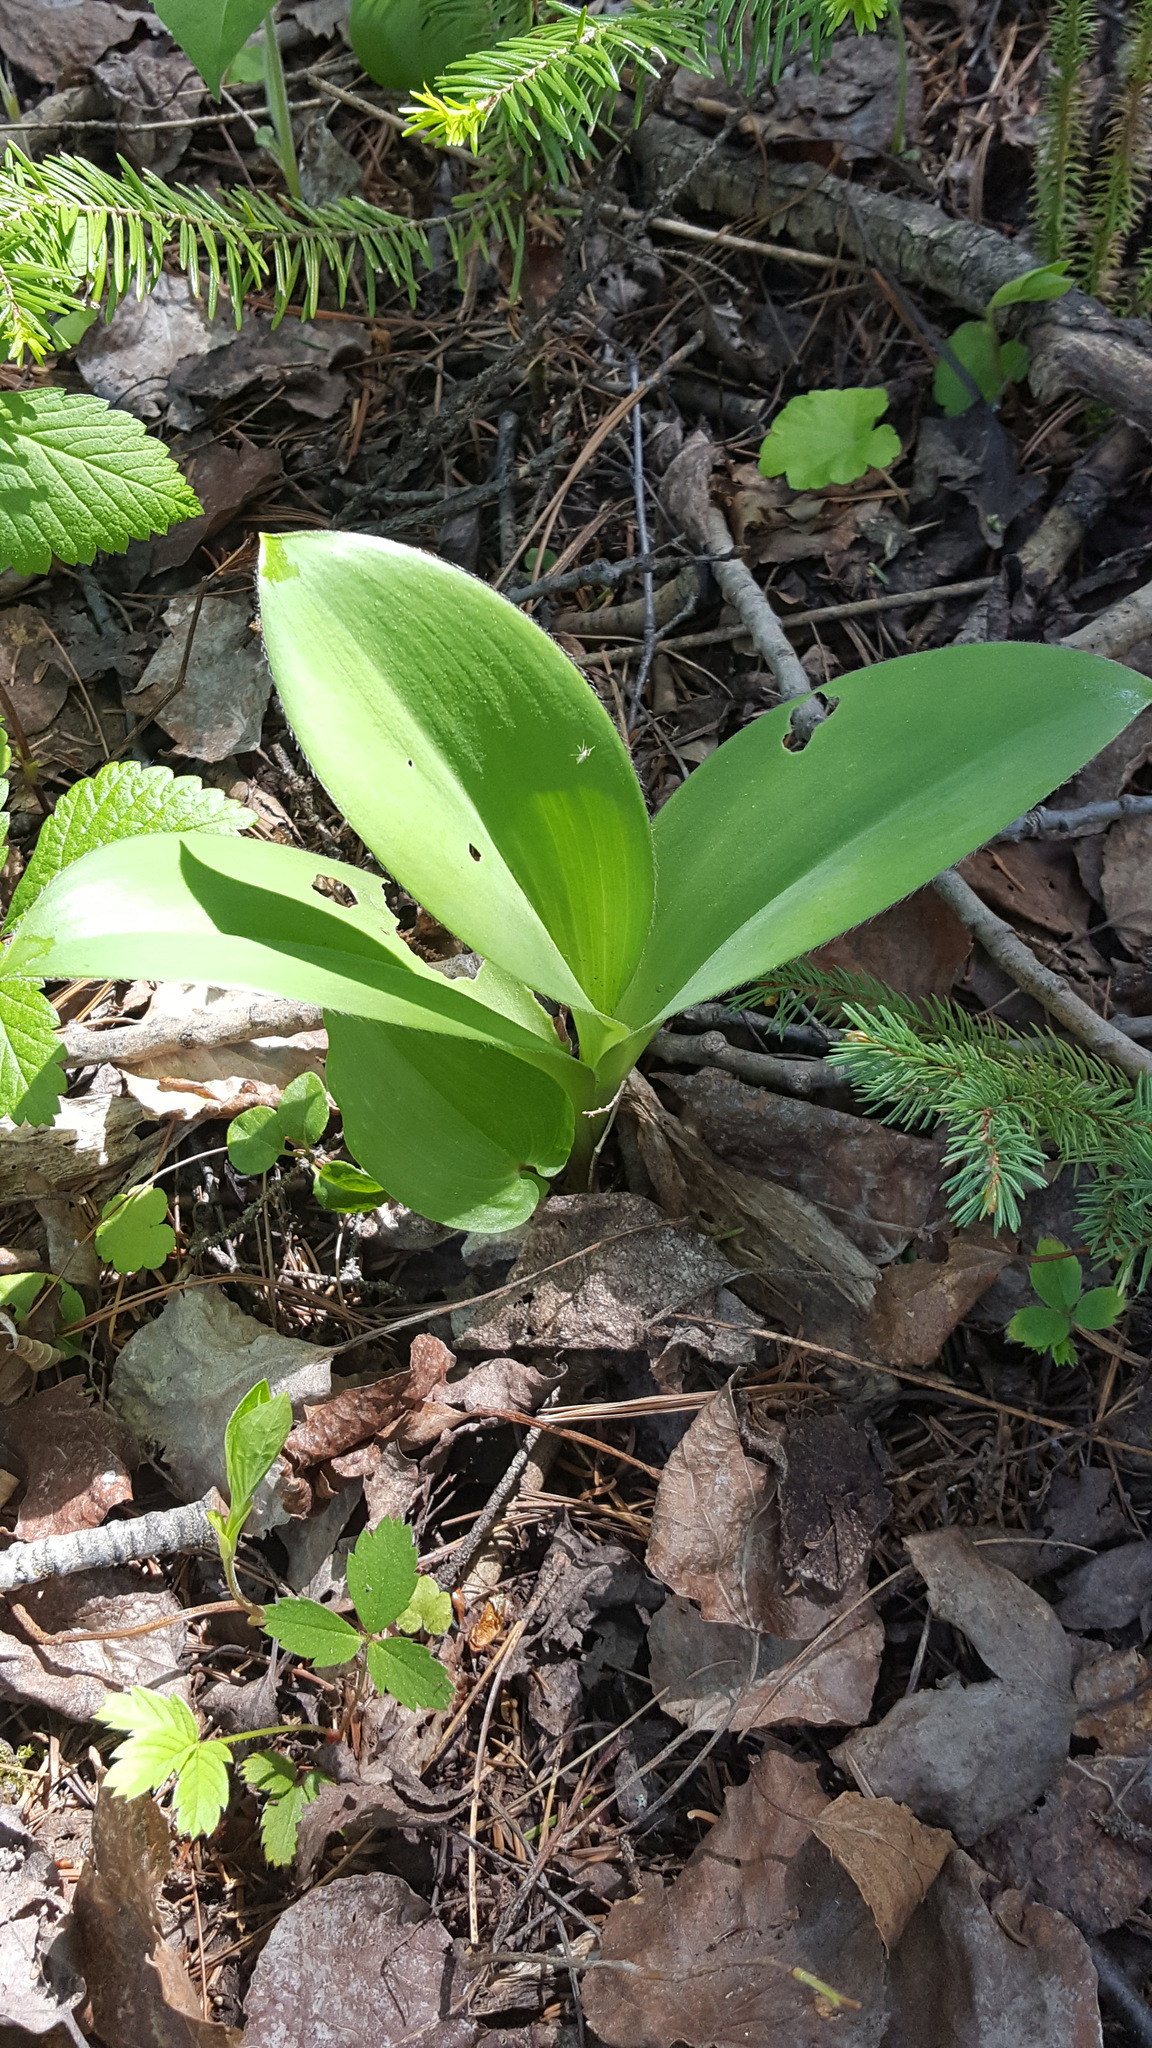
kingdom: Plantae
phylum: Tracheophyta
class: Liliopsida
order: Liliales
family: Liliaceae
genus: Clintonia
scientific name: Clintonia borealis
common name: Yellow clintonia
